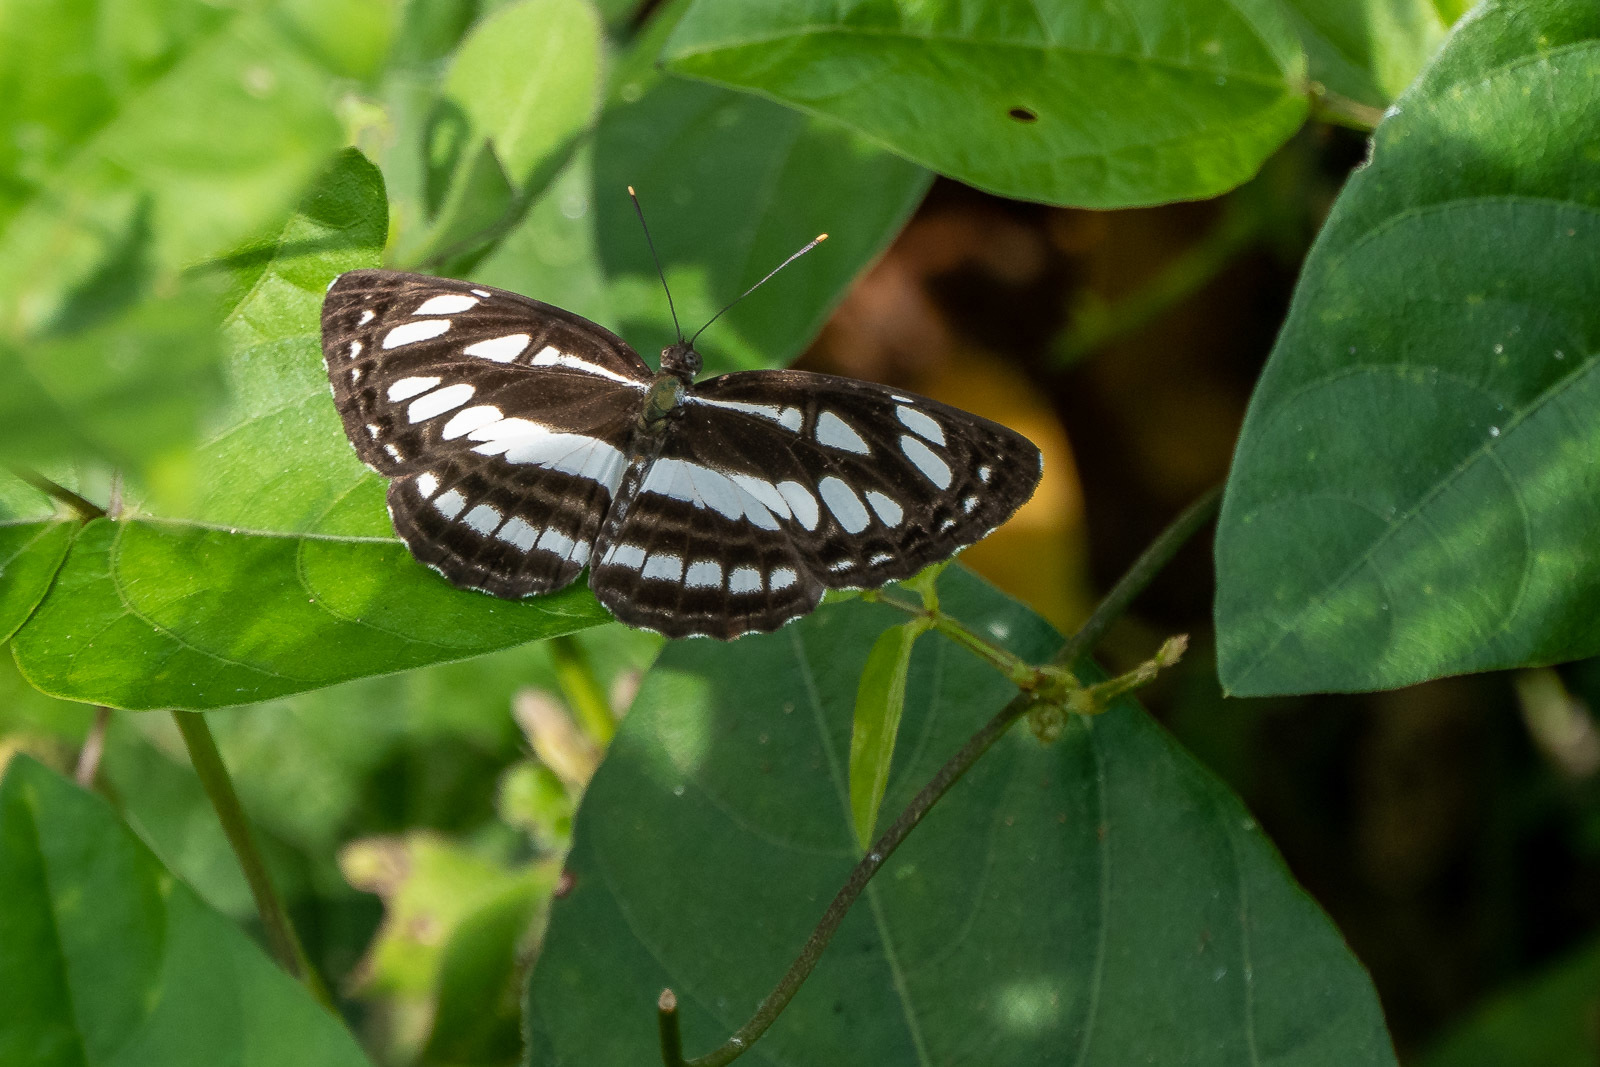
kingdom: Animalia
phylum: Arthropoda
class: Insecta
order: Lepidoptera
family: Nymphalidae
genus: Neptis
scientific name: Neptis hylas
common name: Common sailer
